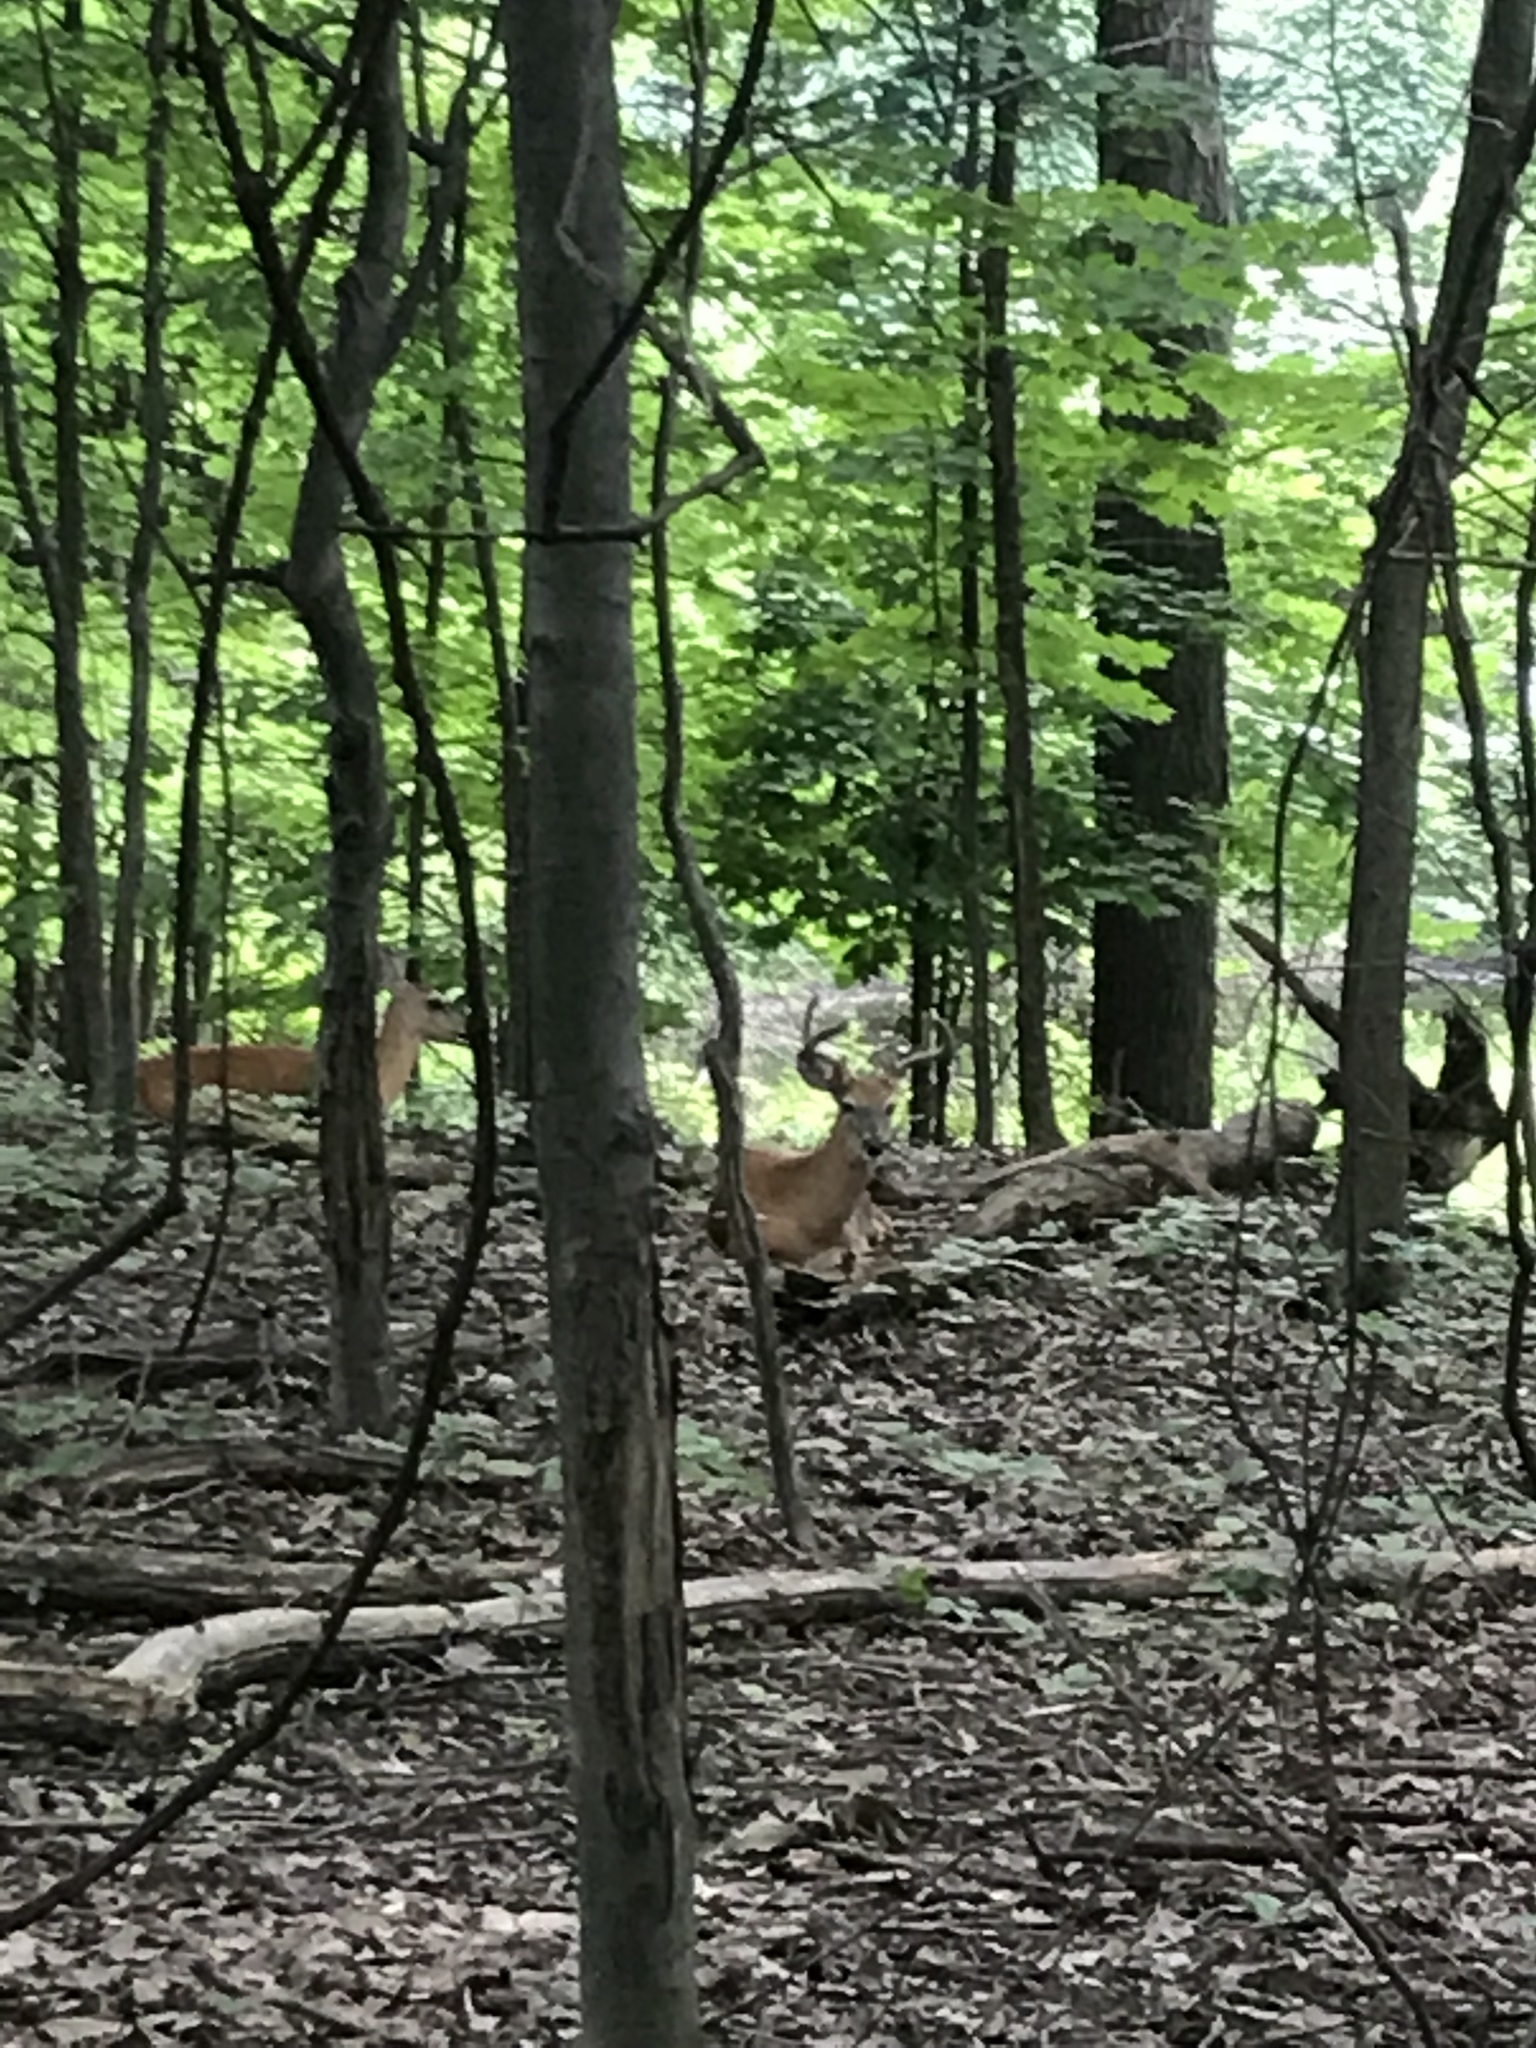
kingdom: Animalia
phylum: Chordata
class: Mammalia
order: Artiodactyla
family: Cervidae
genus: Odocoileus
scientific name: Odocoileus virginianus
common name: White-tailed deer
